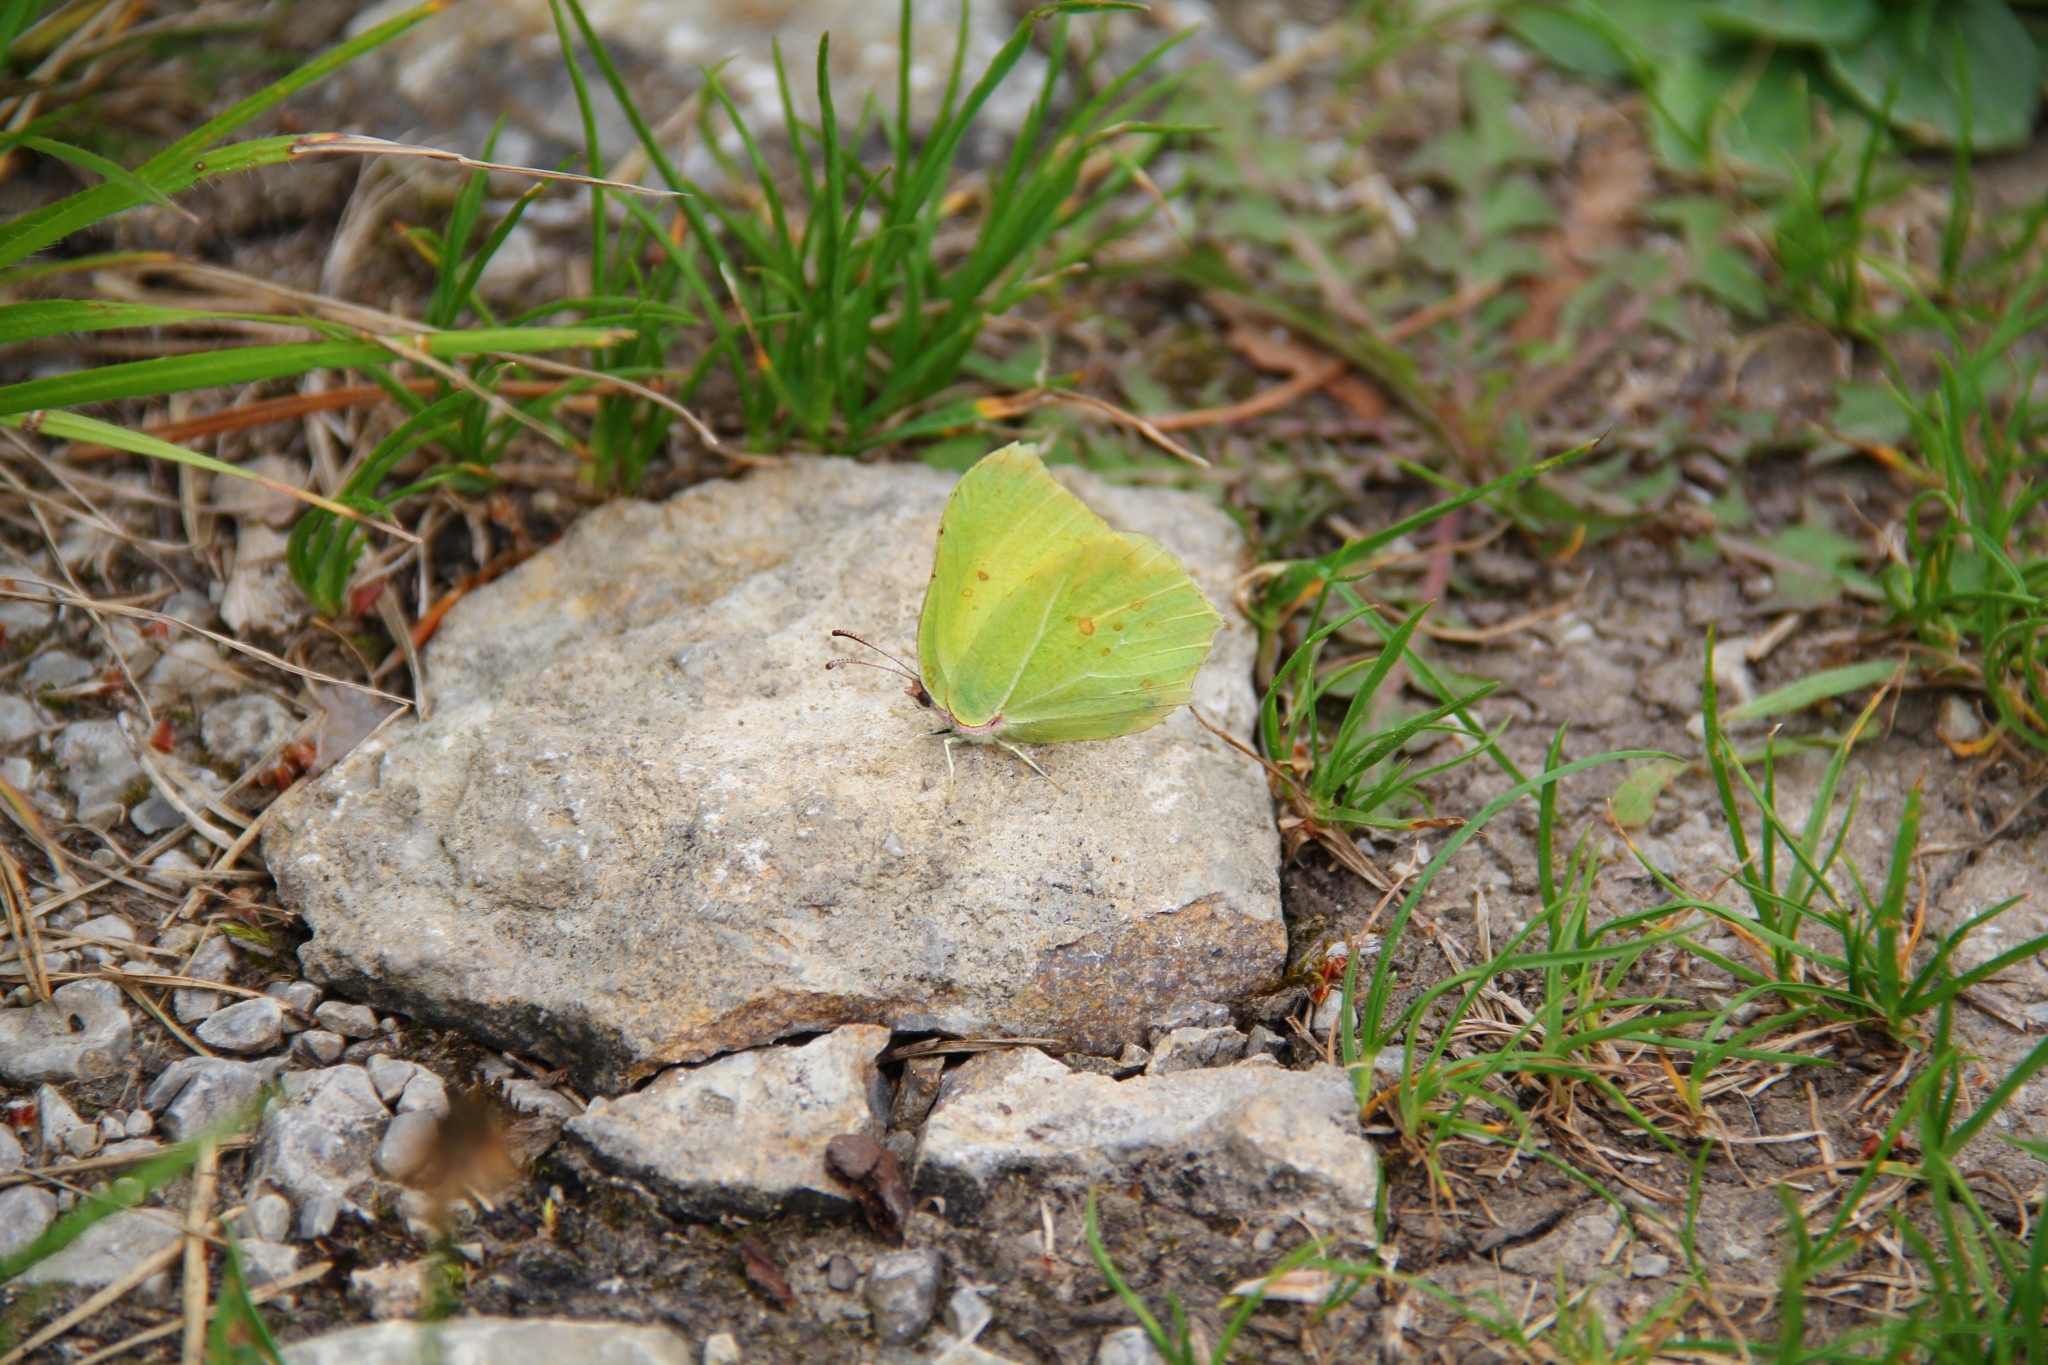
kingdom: Animalia
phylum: Arthropoda
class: Insecta
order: Lepidoptera
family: Pieridae
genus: Gonepteryx
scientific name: Gonepteryx rhamni
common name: Brimstone
